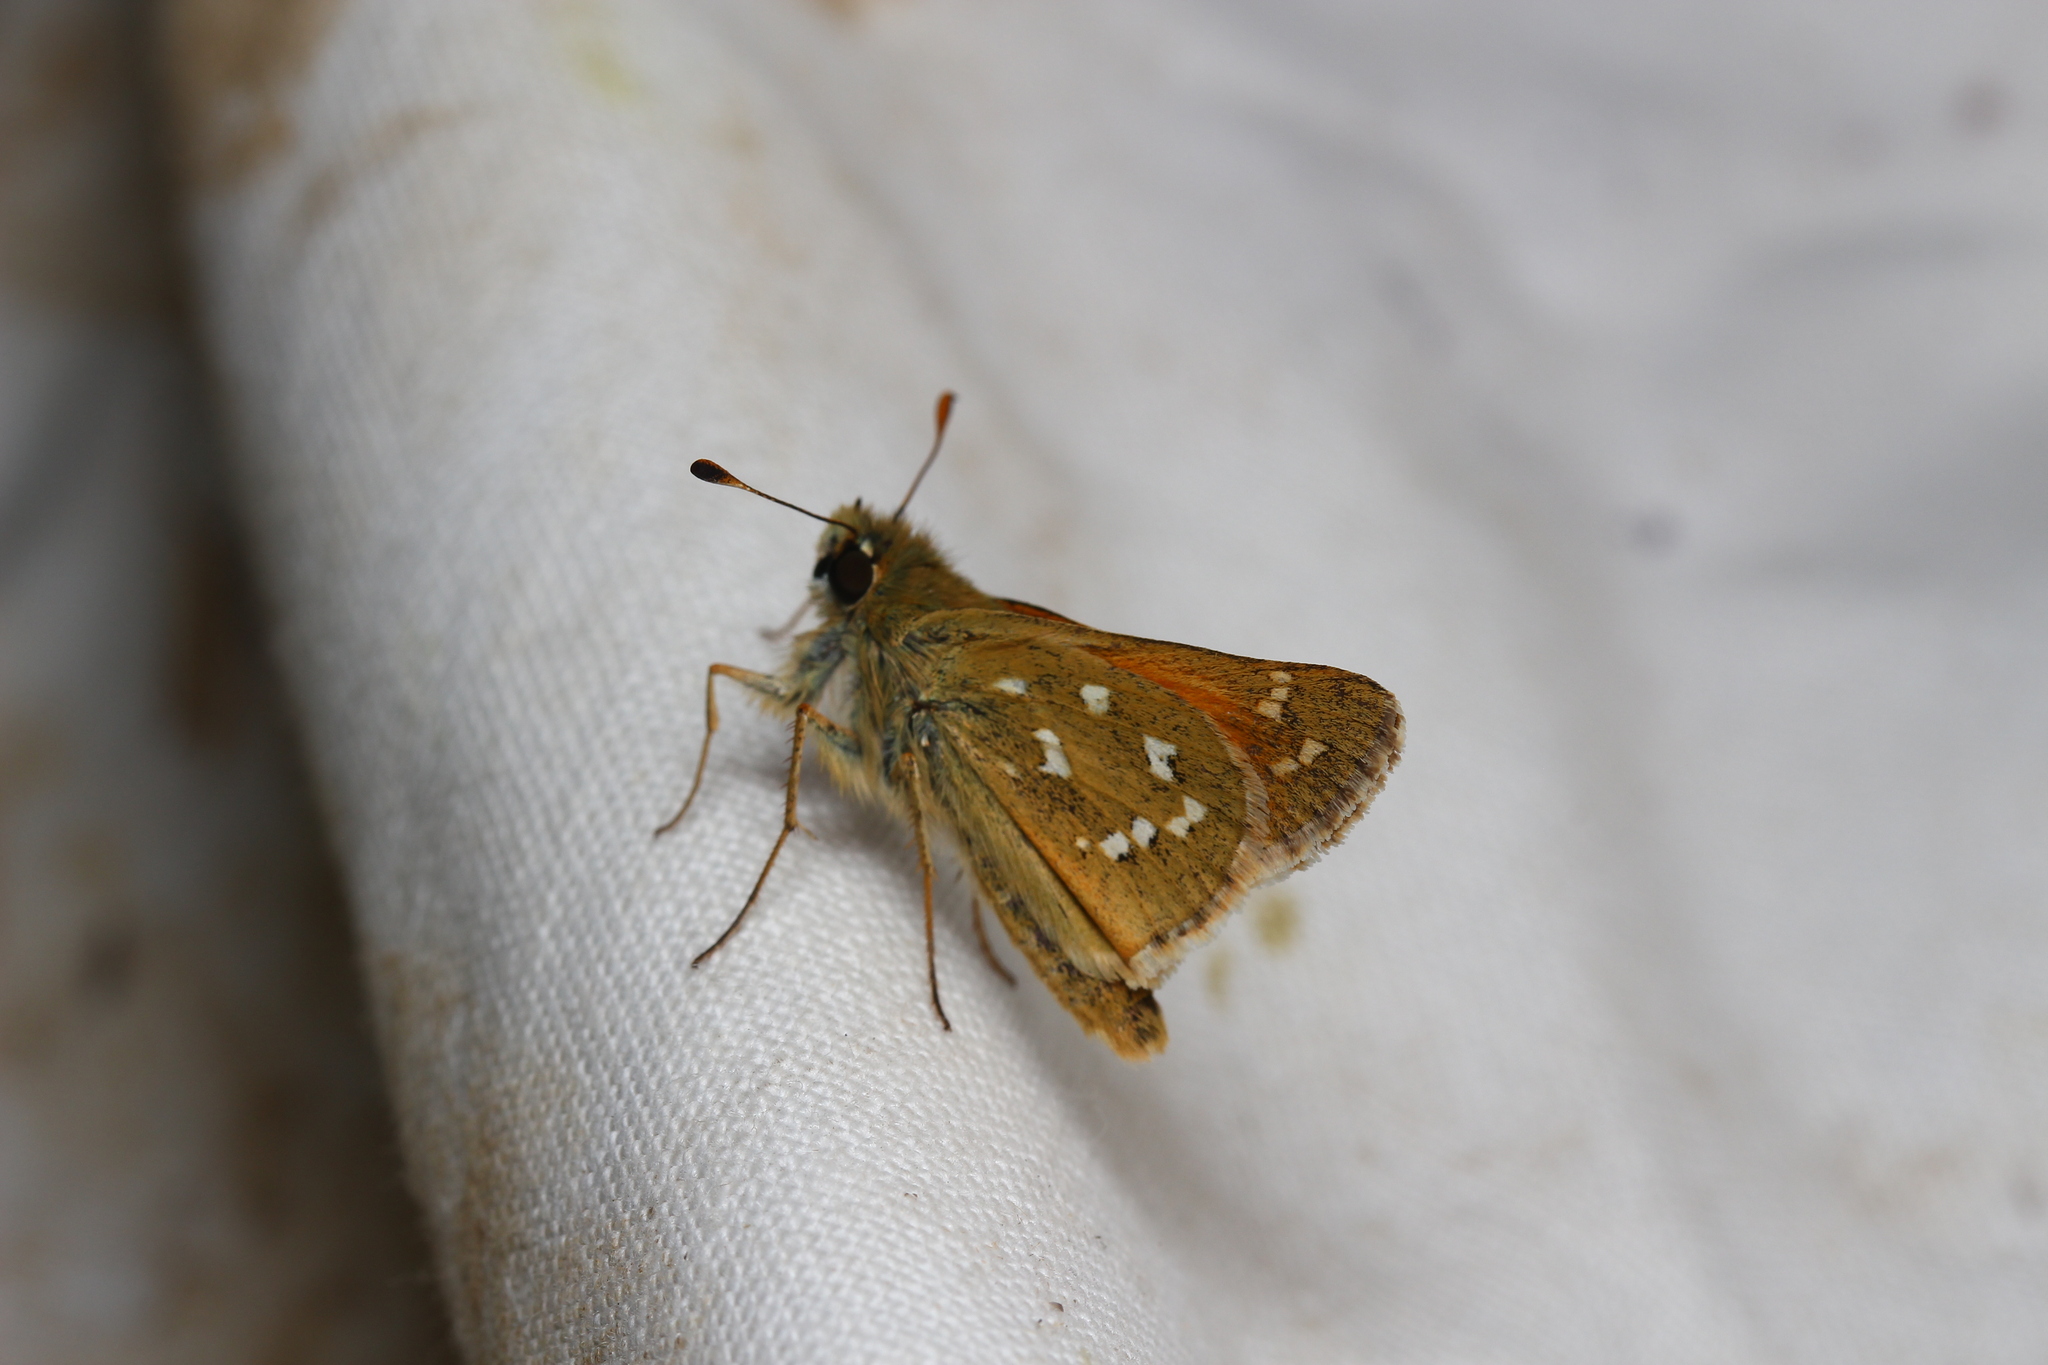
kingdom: Animalia
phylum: Arthropoda
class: Insecta
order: Lepidoptera
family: Hesperiidae
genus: Hesperia
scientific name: Hesperia comma
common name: Common branded skipper
